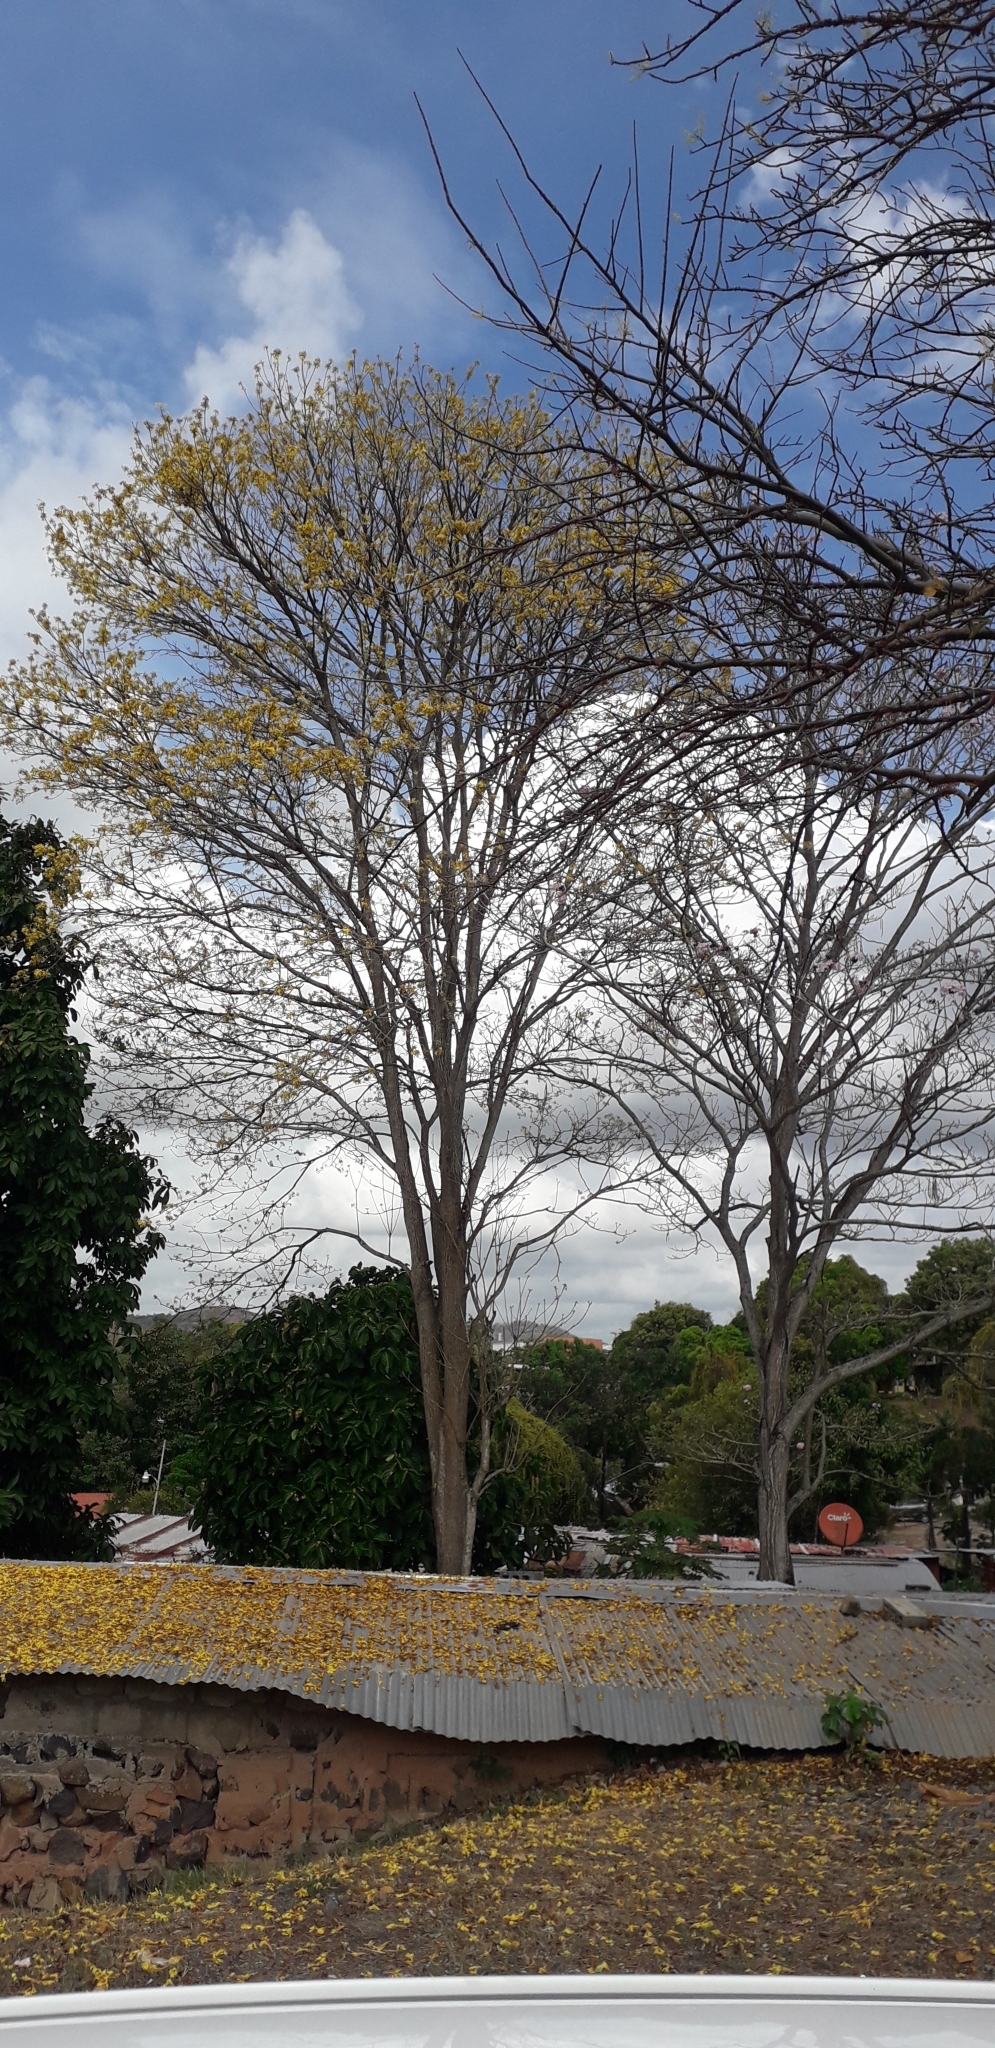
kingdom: Plantae
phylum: Tracheophyta
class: Magnoliopsida
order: Lamiales
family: Bignoniaceae
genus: Handroanthus
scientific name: Handroanthus guayacan
